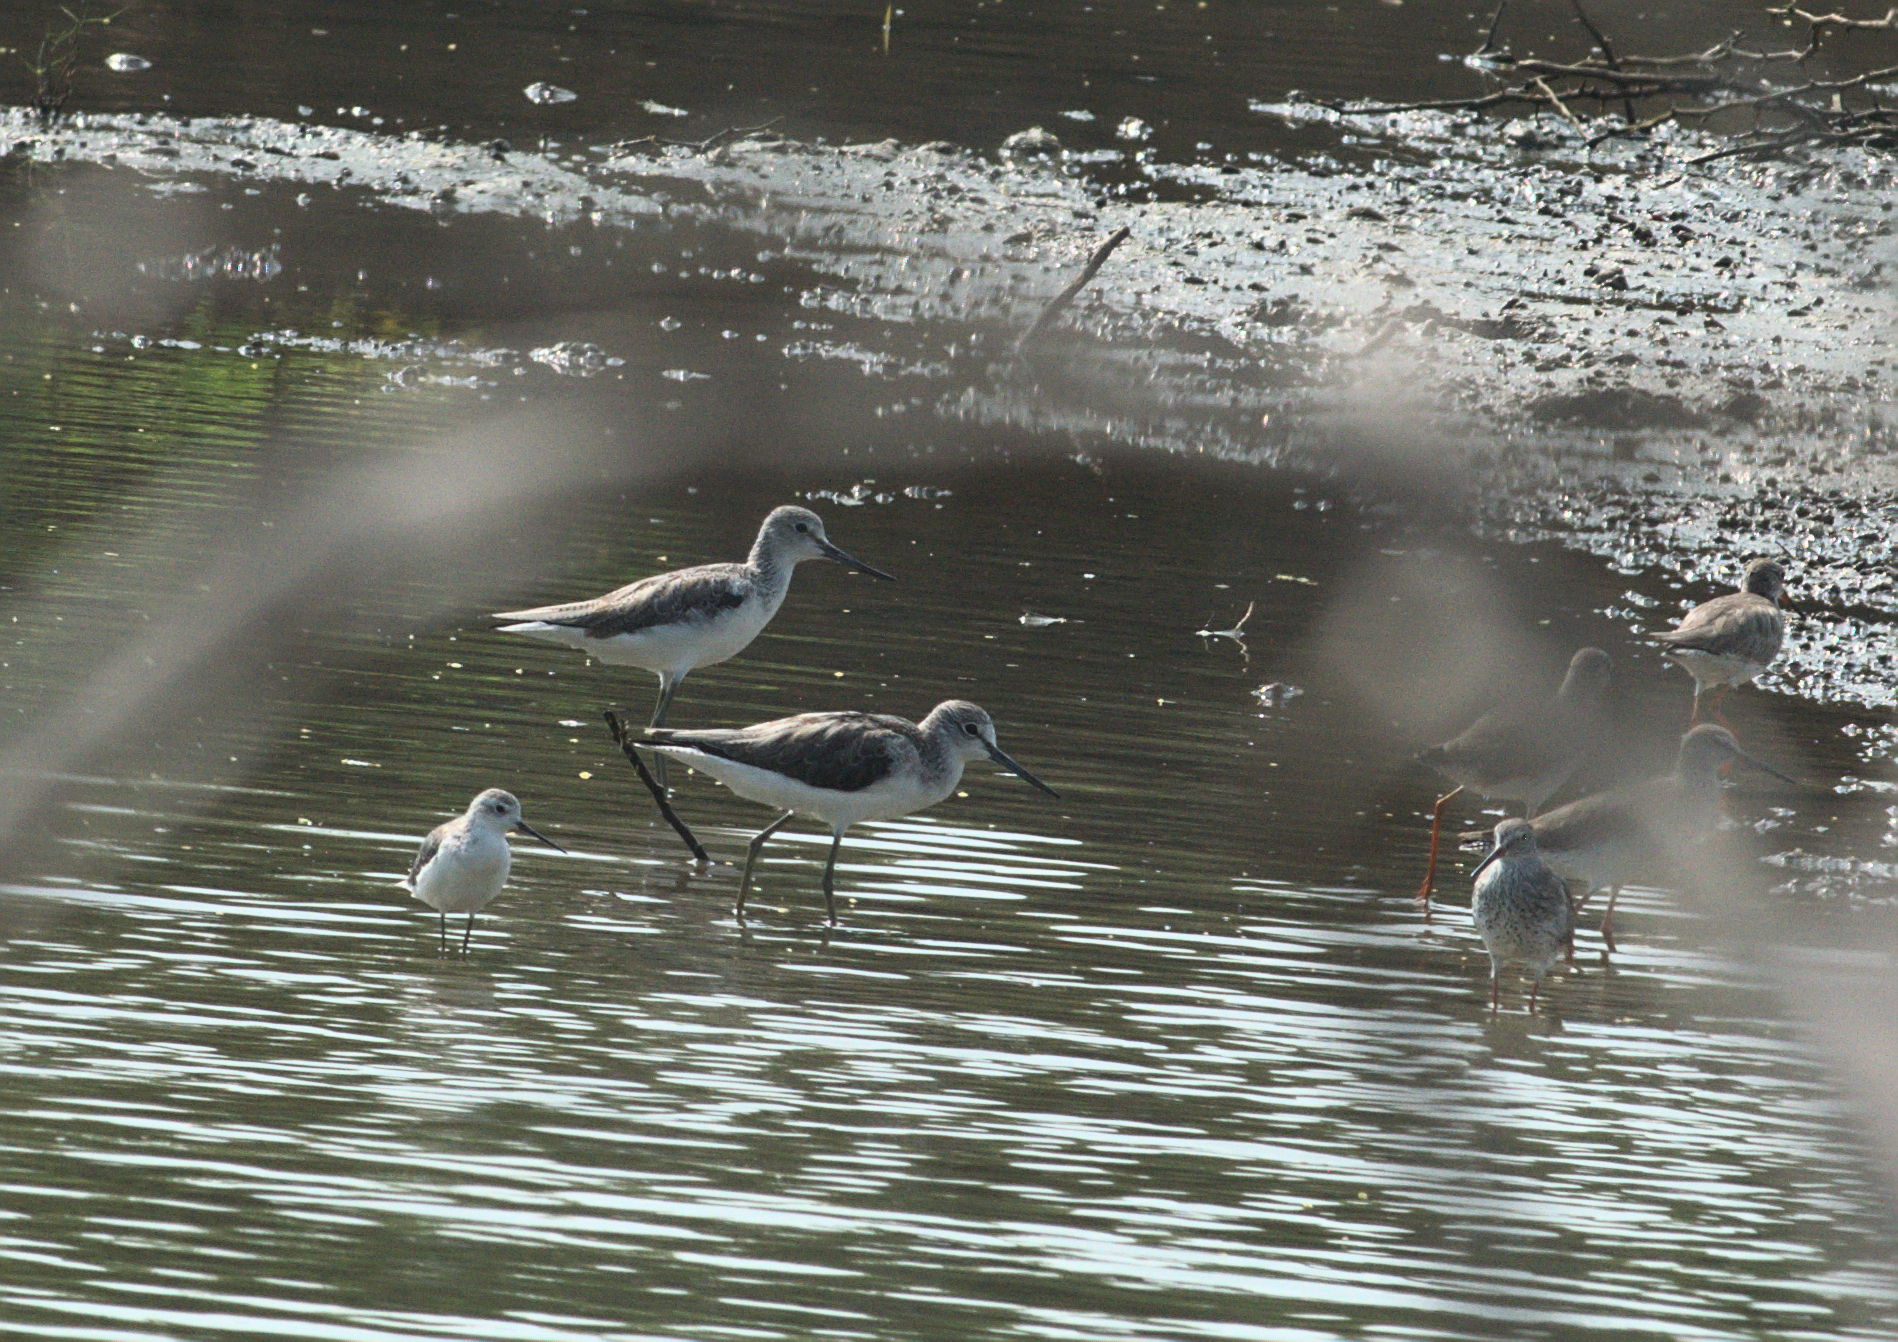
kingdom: Animalia
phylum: Chordata
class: Aves
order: Charadriiformes
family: Scolopacidae
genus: Tringa
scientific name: Tringa nebularia
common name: Common greenshank
